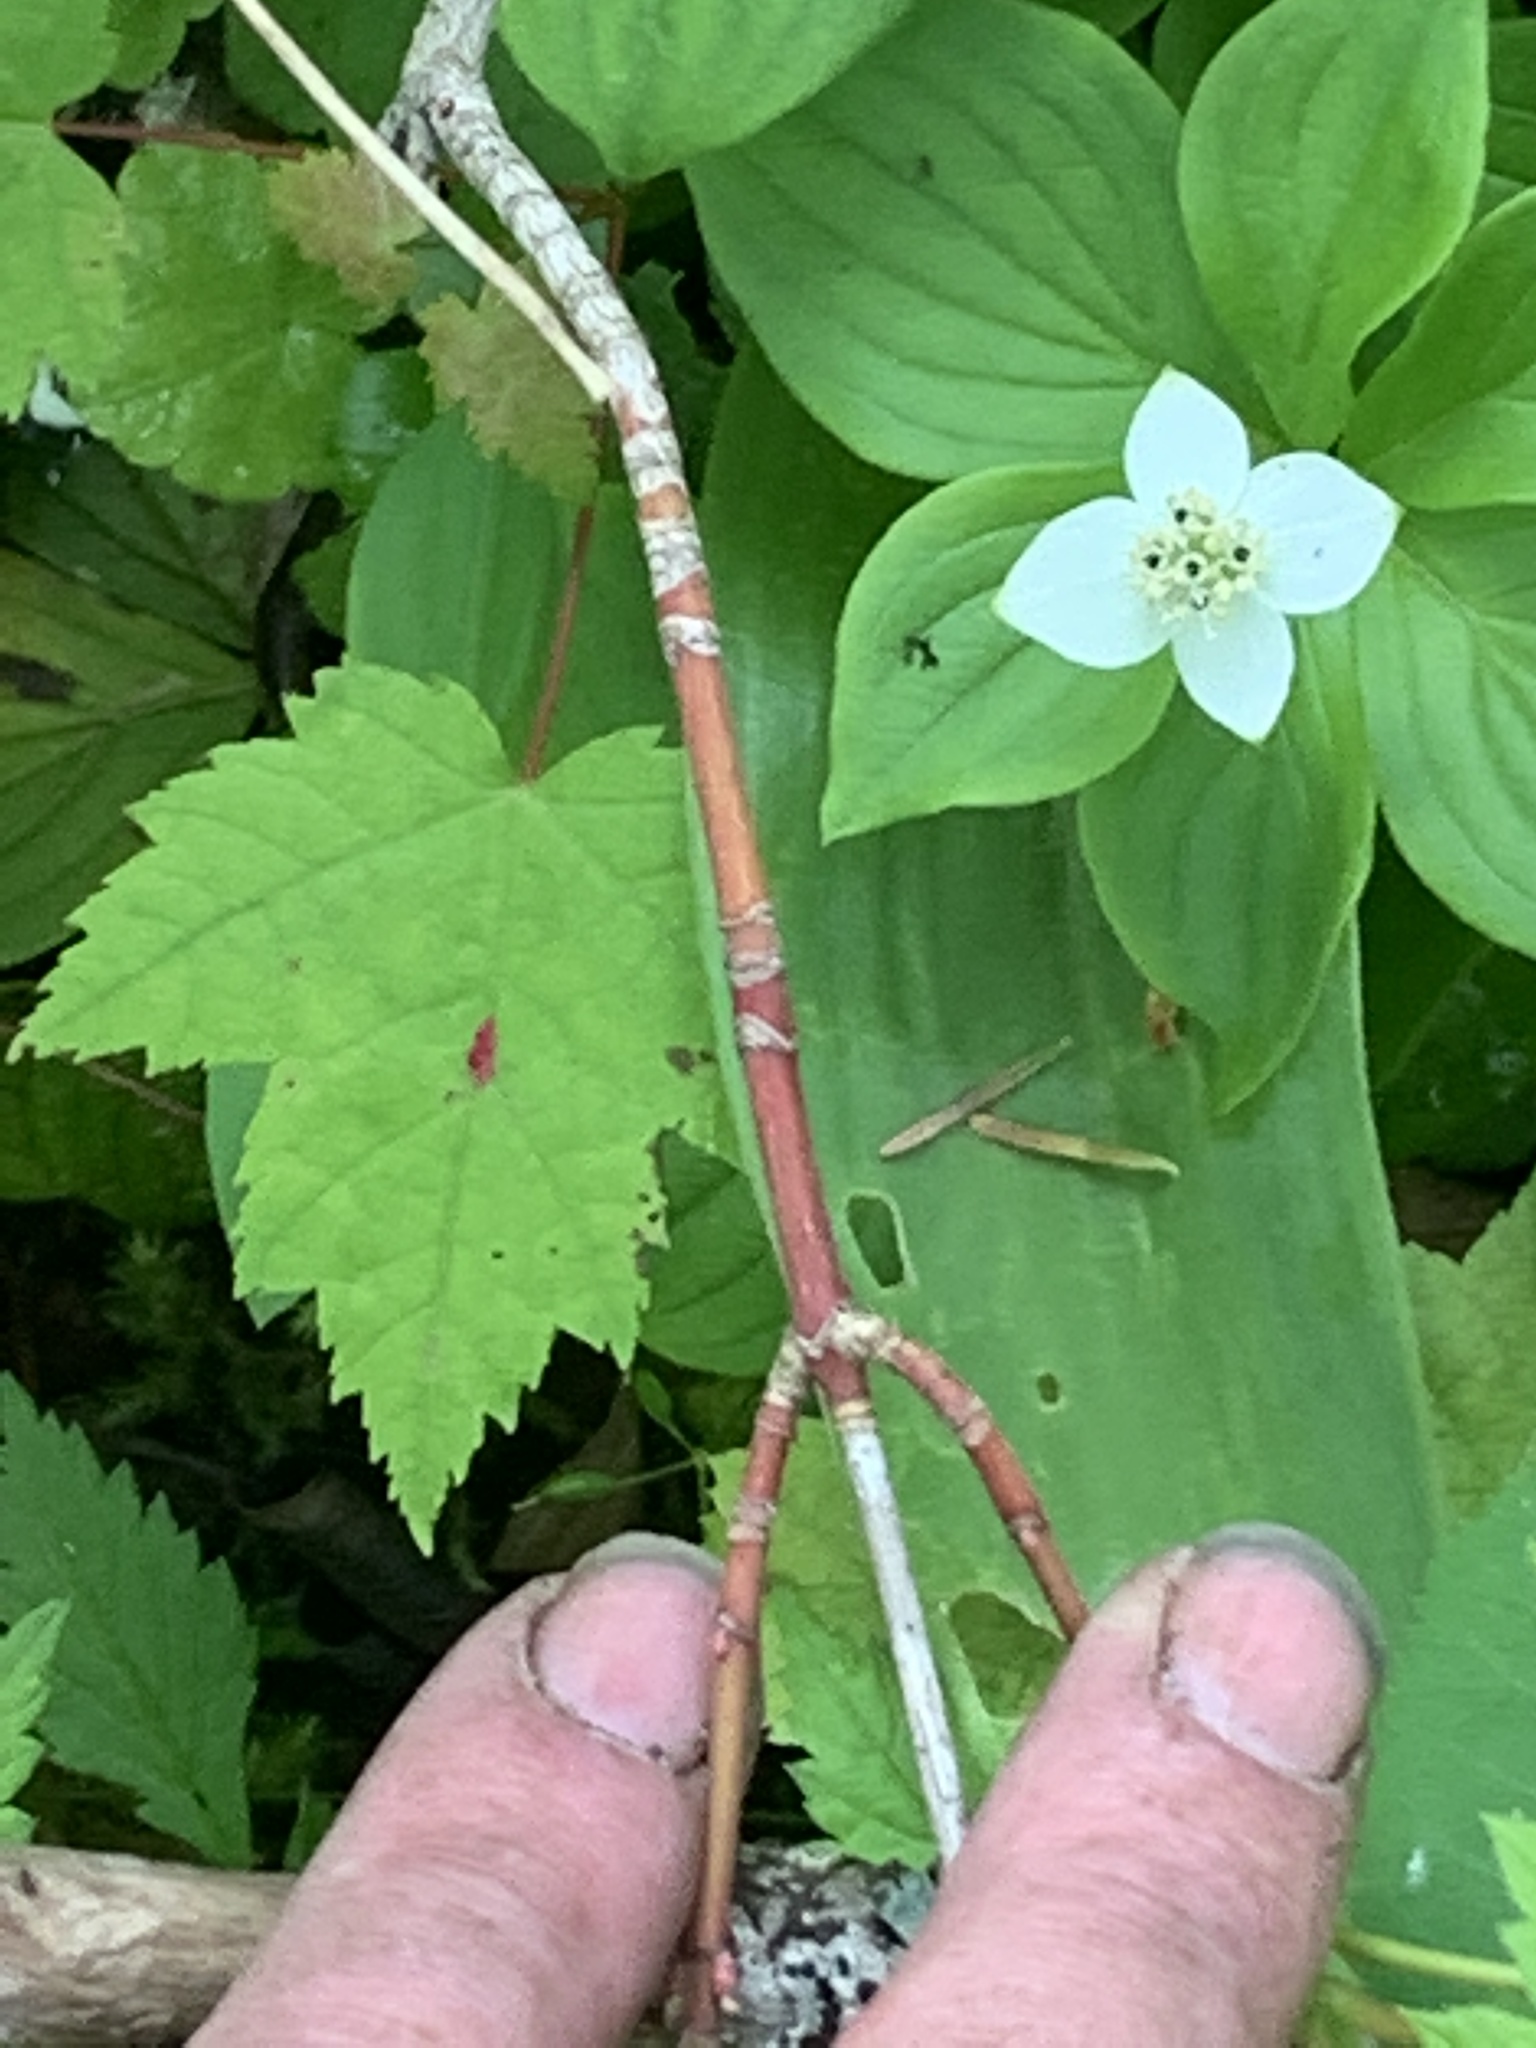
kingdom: Plantae
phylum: Tracheophyta
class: Magnoliopsida
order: Sapindales
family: Sapindaceae
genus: Acer
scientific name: Acer spicatum
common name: Mountain maple
